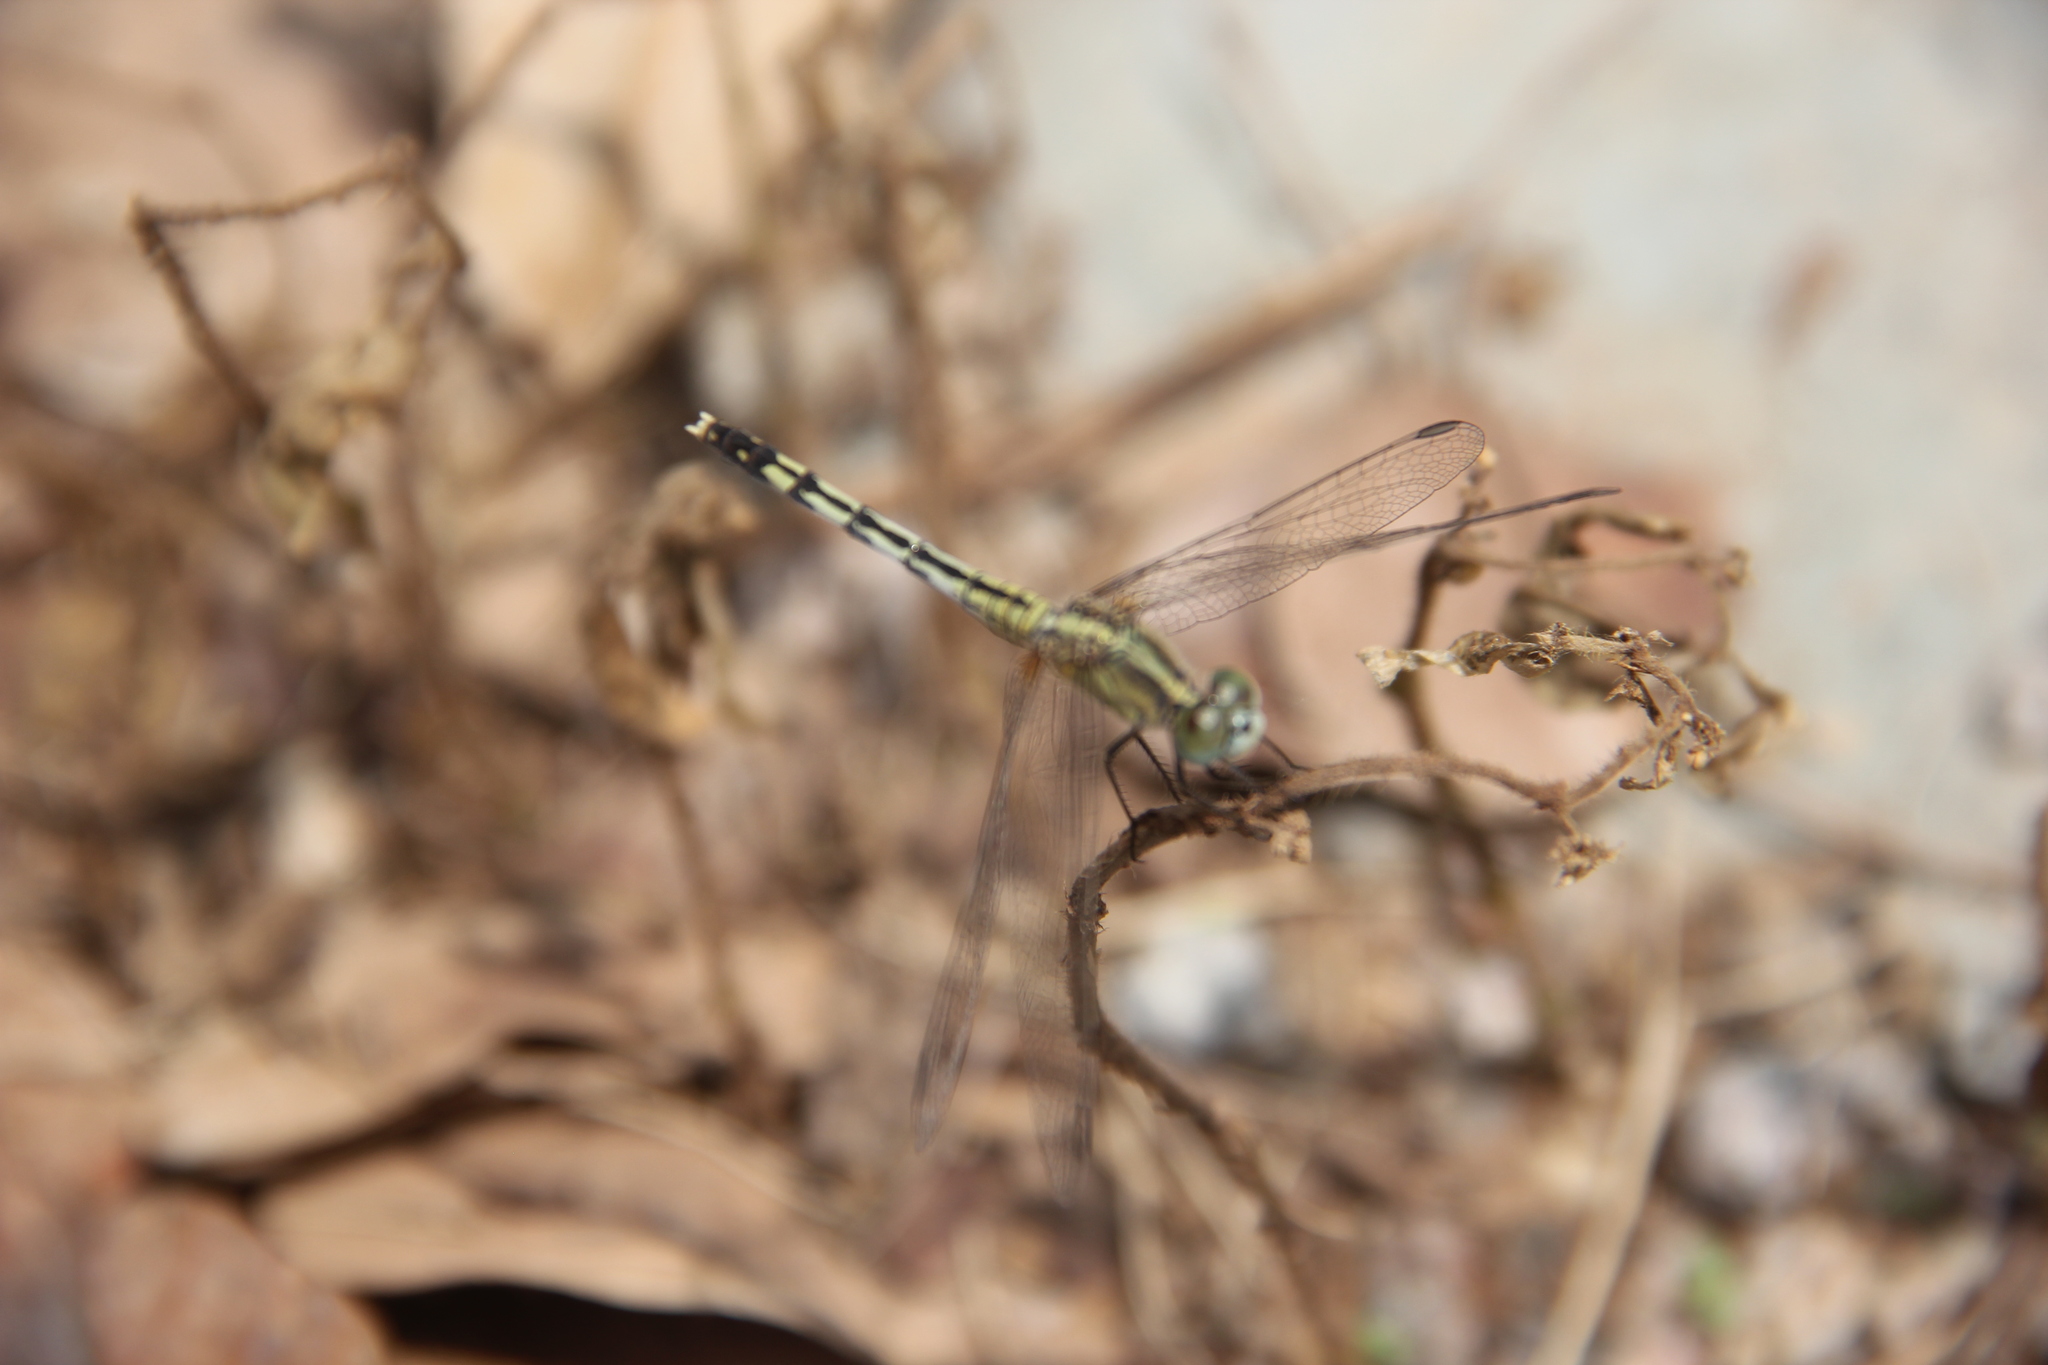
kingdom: Animalia
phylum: Arthropoda
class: Insecta
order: Odonata
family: Libellulidae
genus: Diplacodes
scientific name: Diplacodes trivialis
